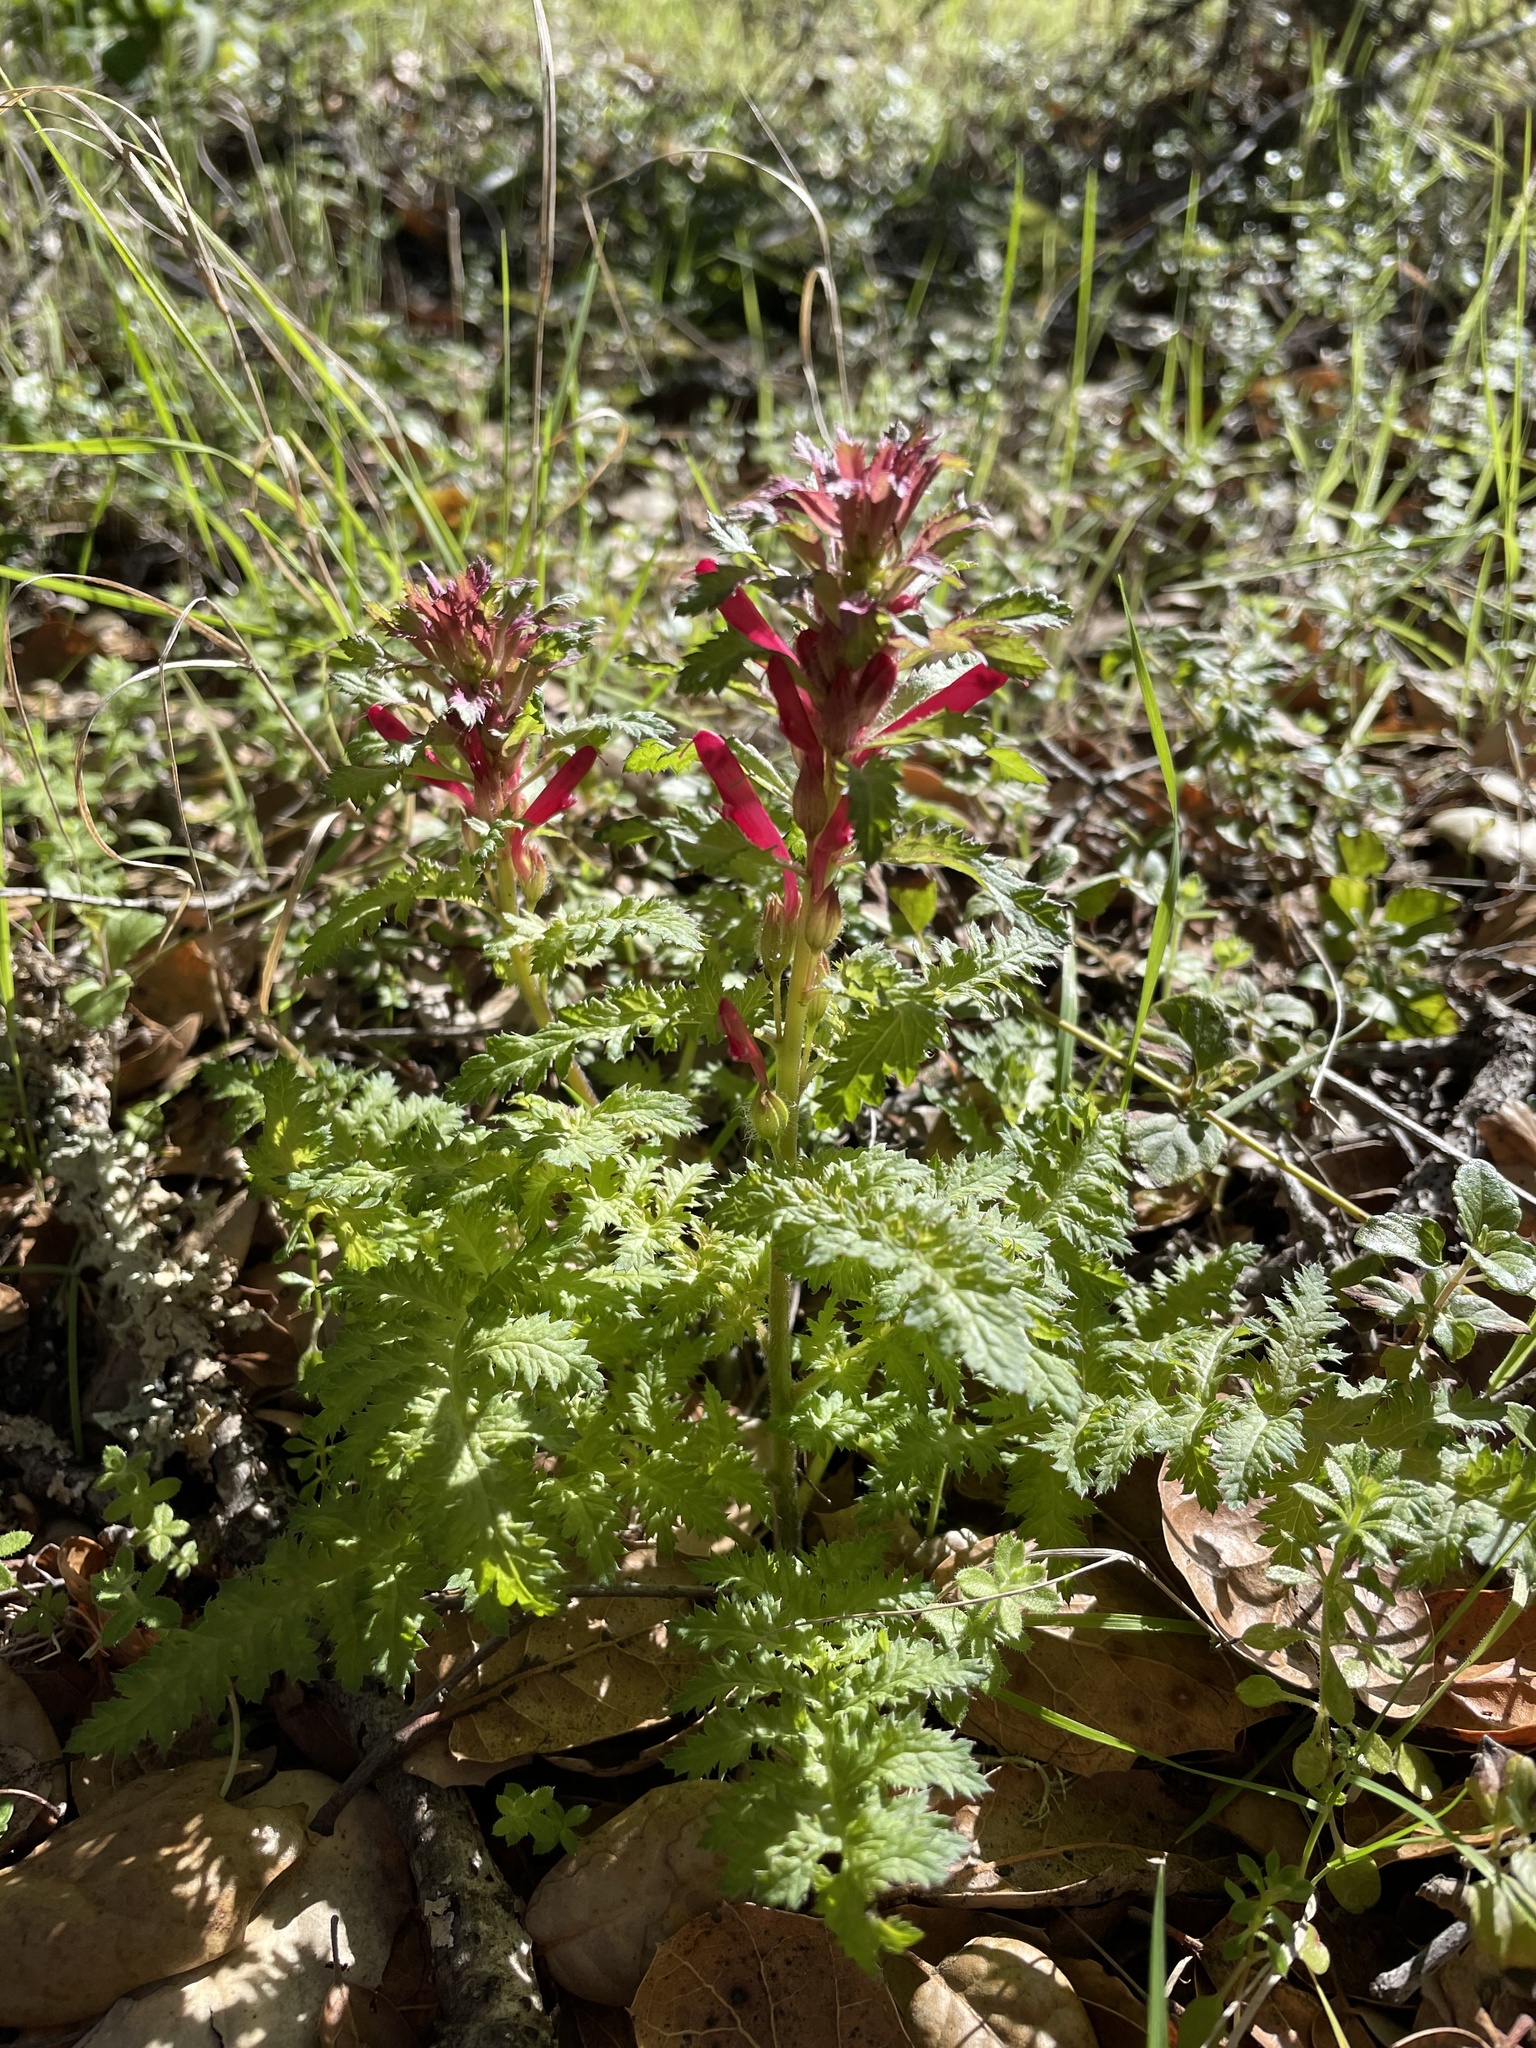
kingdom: Plantae
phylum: Tracheophyta
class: Magnoliopsida
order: Lamiales
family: Orobanchaceae
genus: Pedicularis
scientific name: Pedicularis densiflora
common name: Indian warrior
